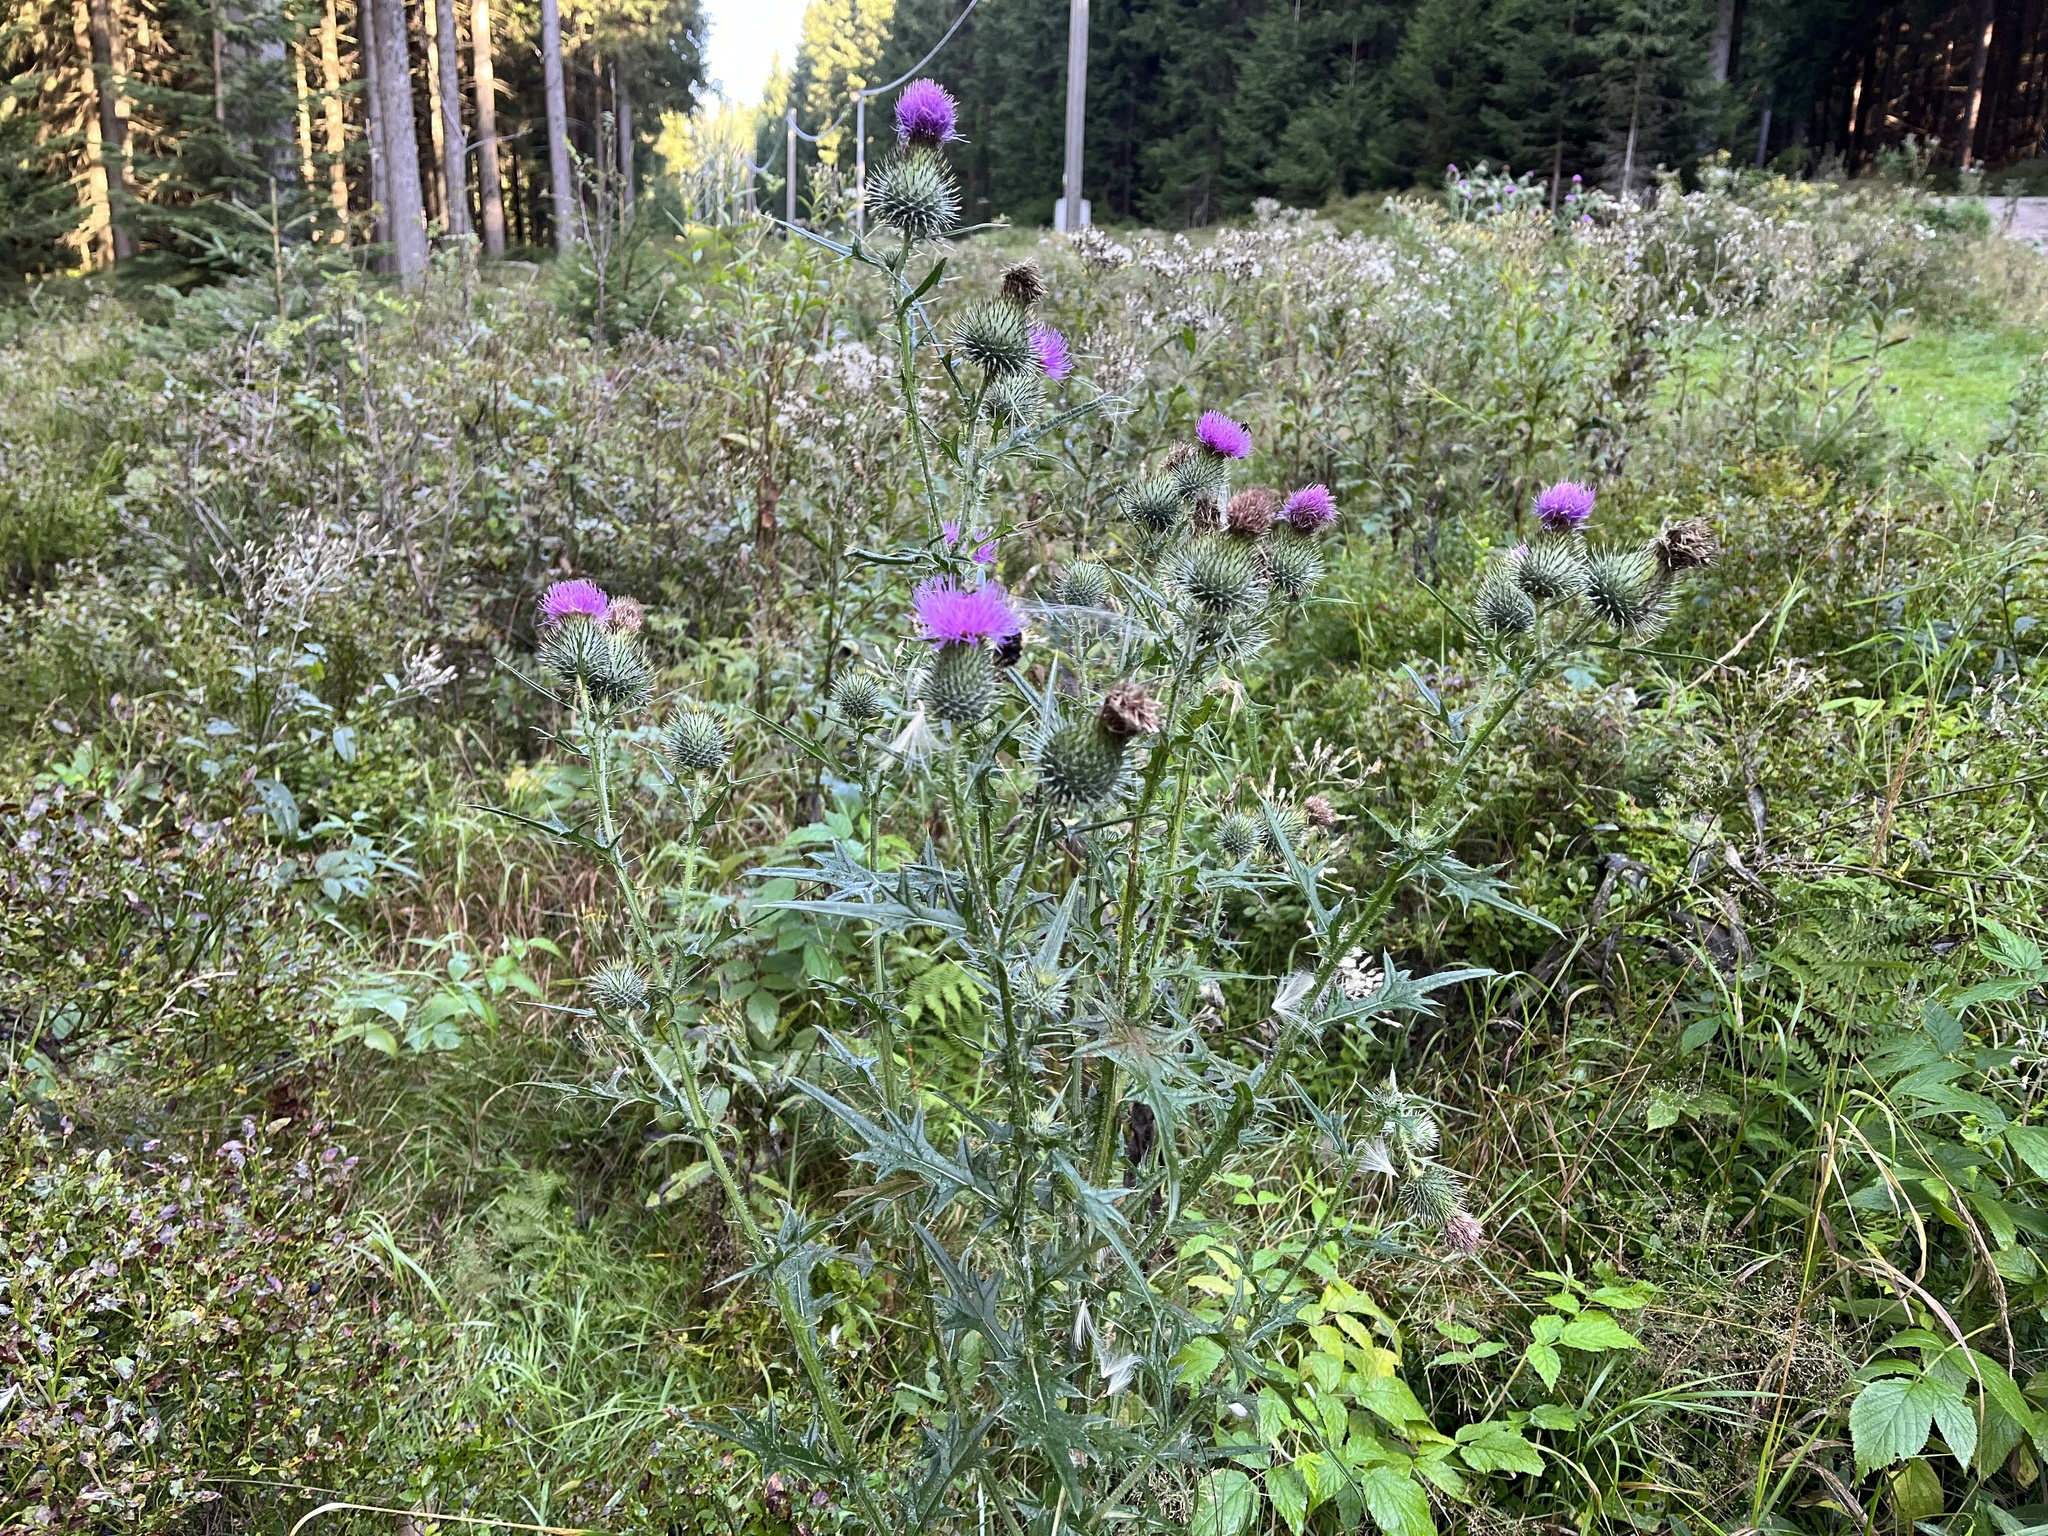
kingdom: Plantae
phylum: Tracheophyta
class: Magnoliopsida
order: Asterales
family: Asteraceae
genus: Cirsium
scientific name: Cirsium vulgare
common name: Bull thistle
